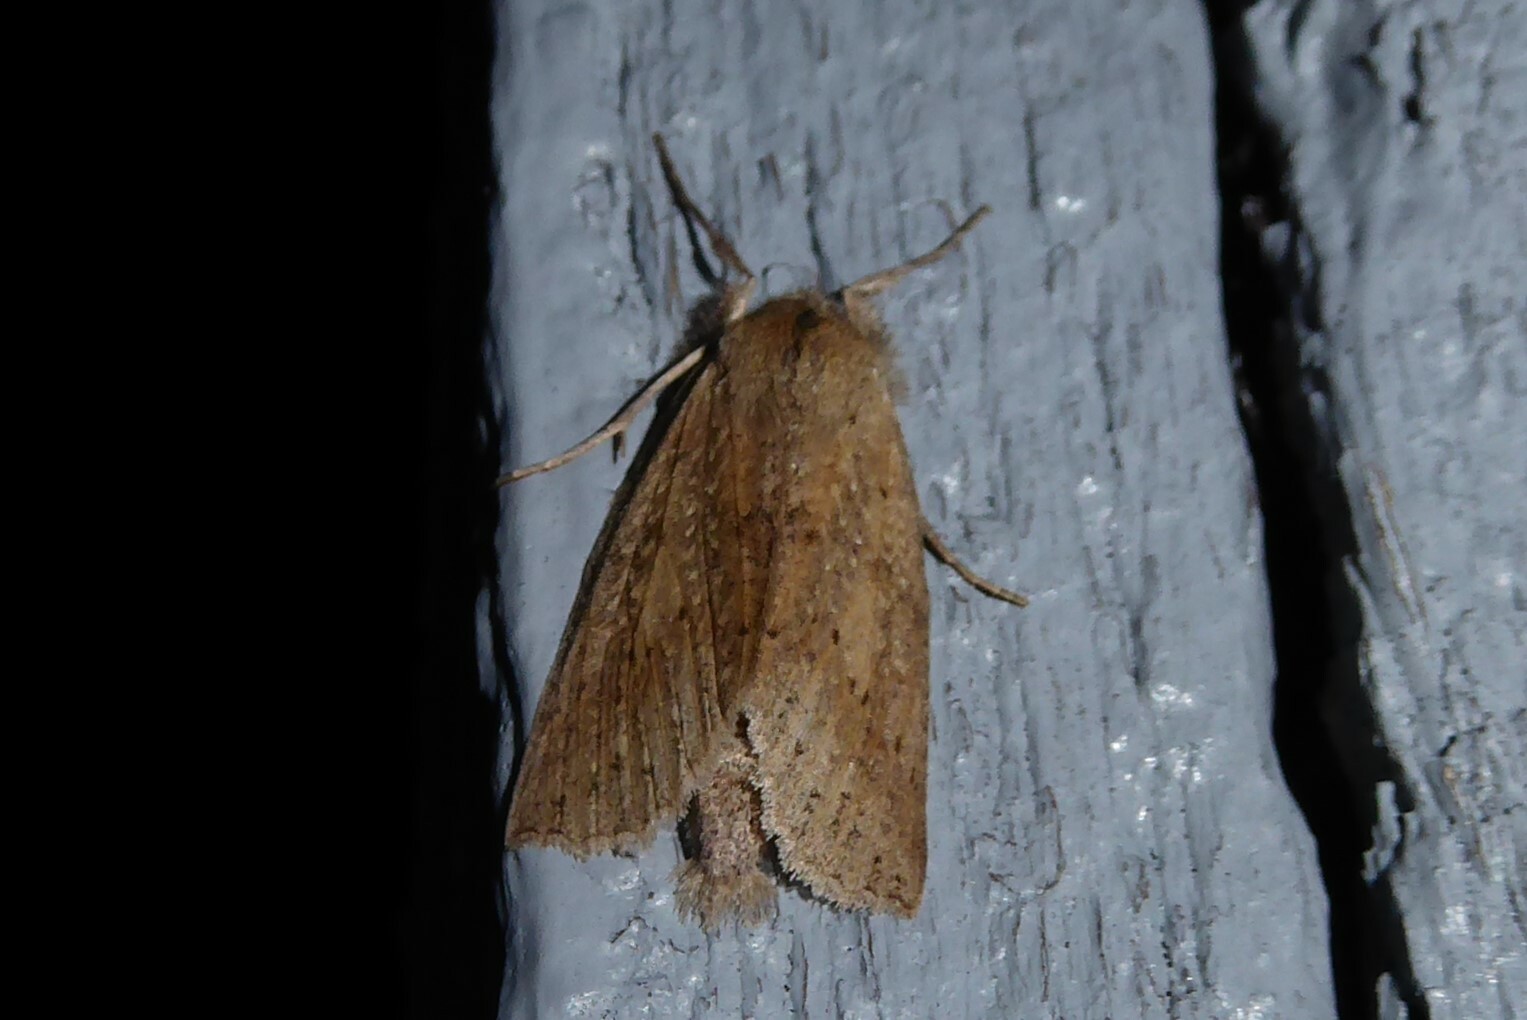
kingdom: Animalia
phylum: Arthropoda
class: Insecta
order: Lepidoptera
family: Geometridae
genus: Declana
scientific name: Declana leptomera
